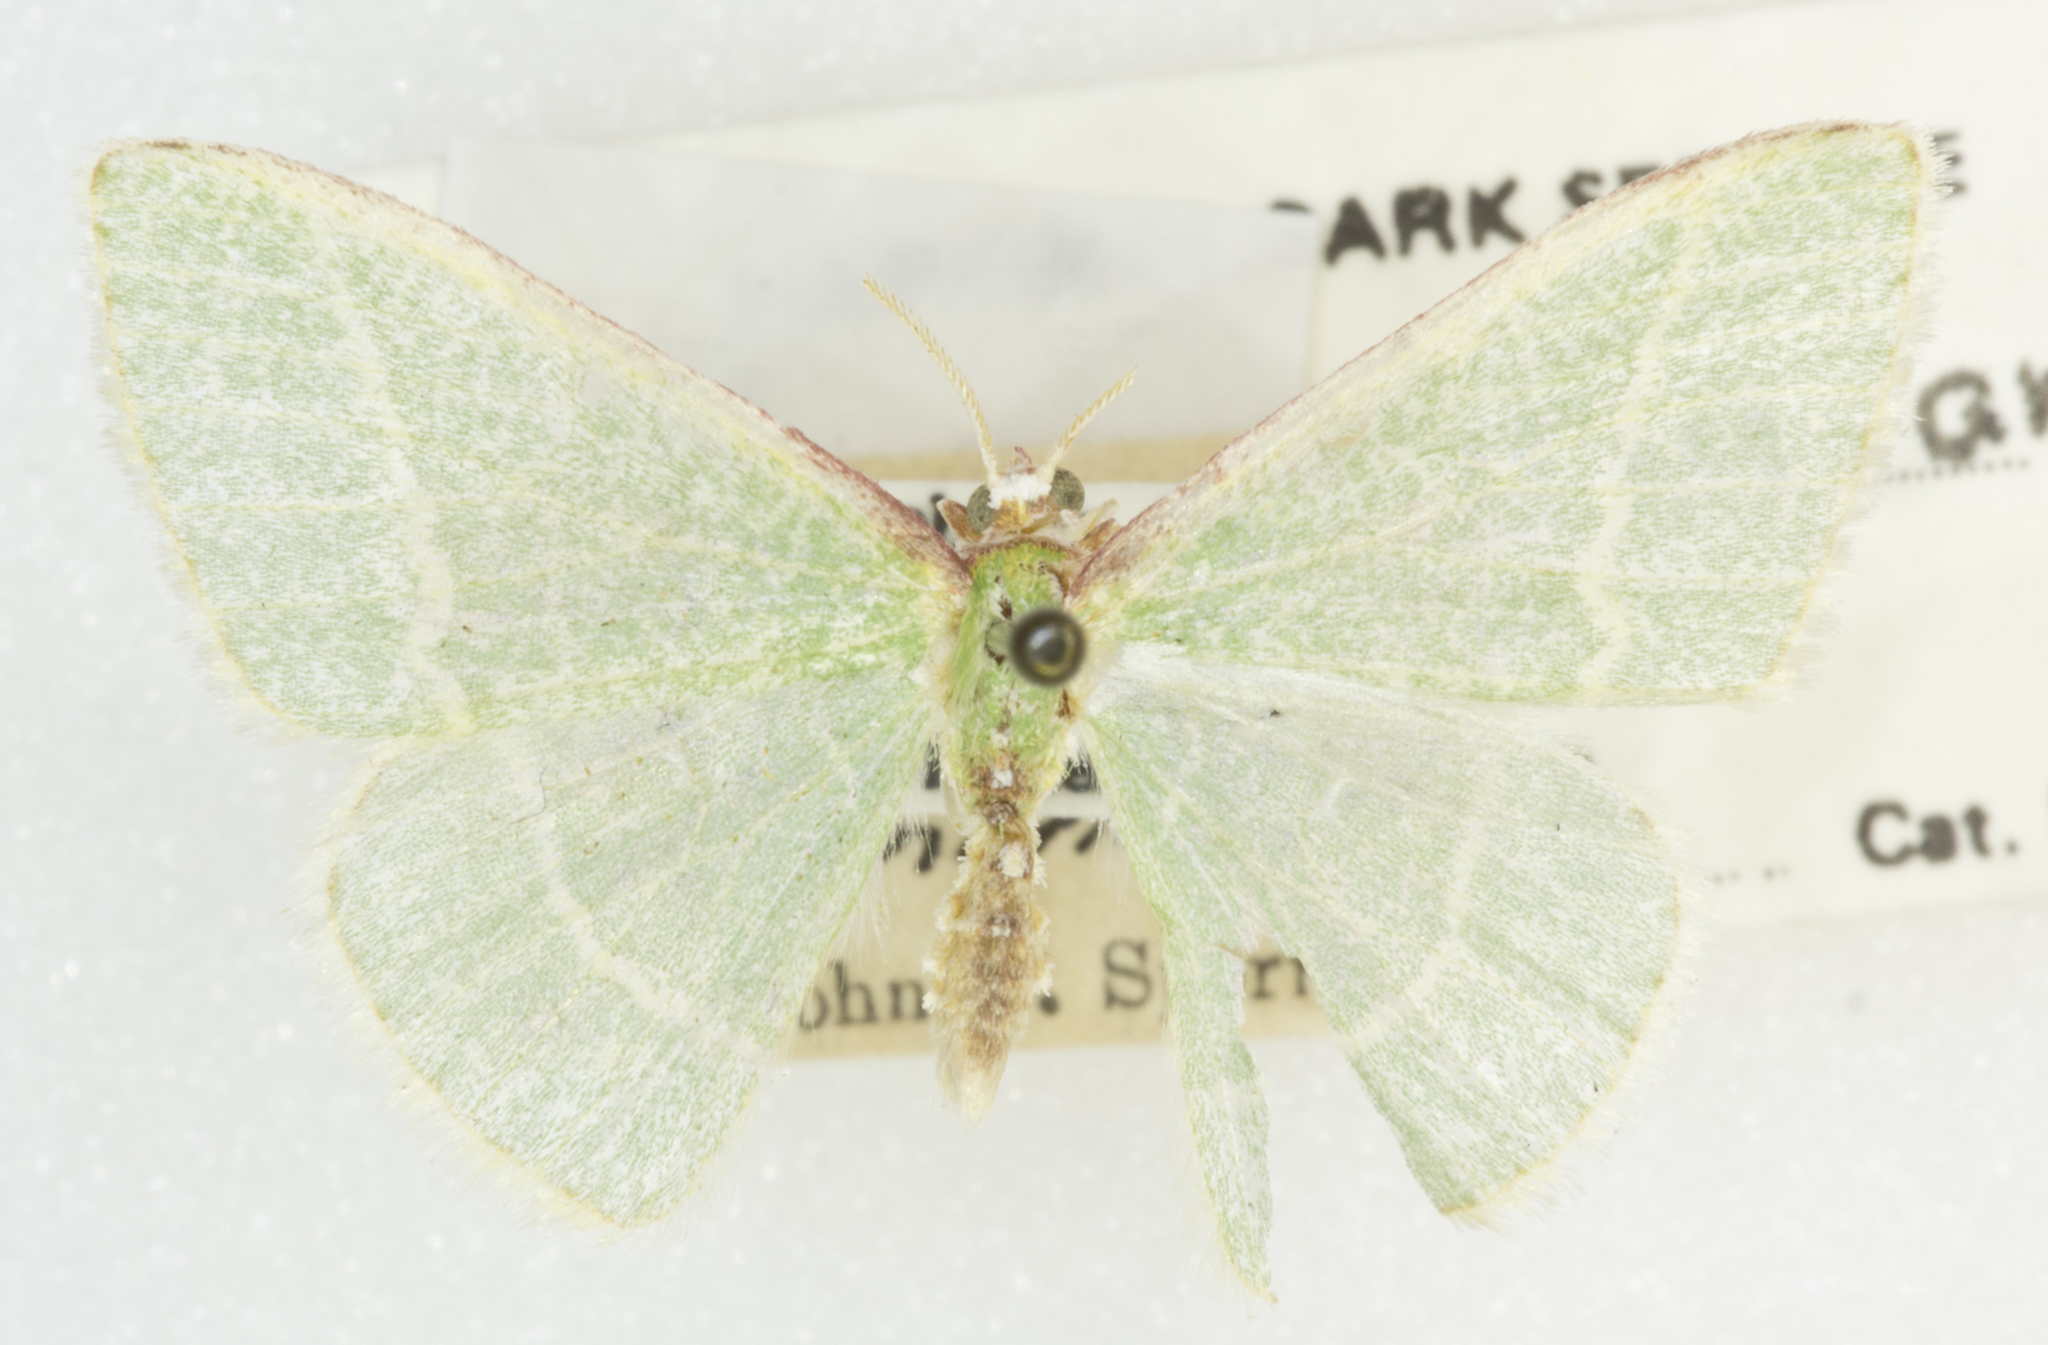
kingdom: Animalia
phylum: Arthropoda
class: Insecta
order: Lepidoptera
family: Geometridae
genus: Nemoria
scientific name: Nemoria arizonaria
